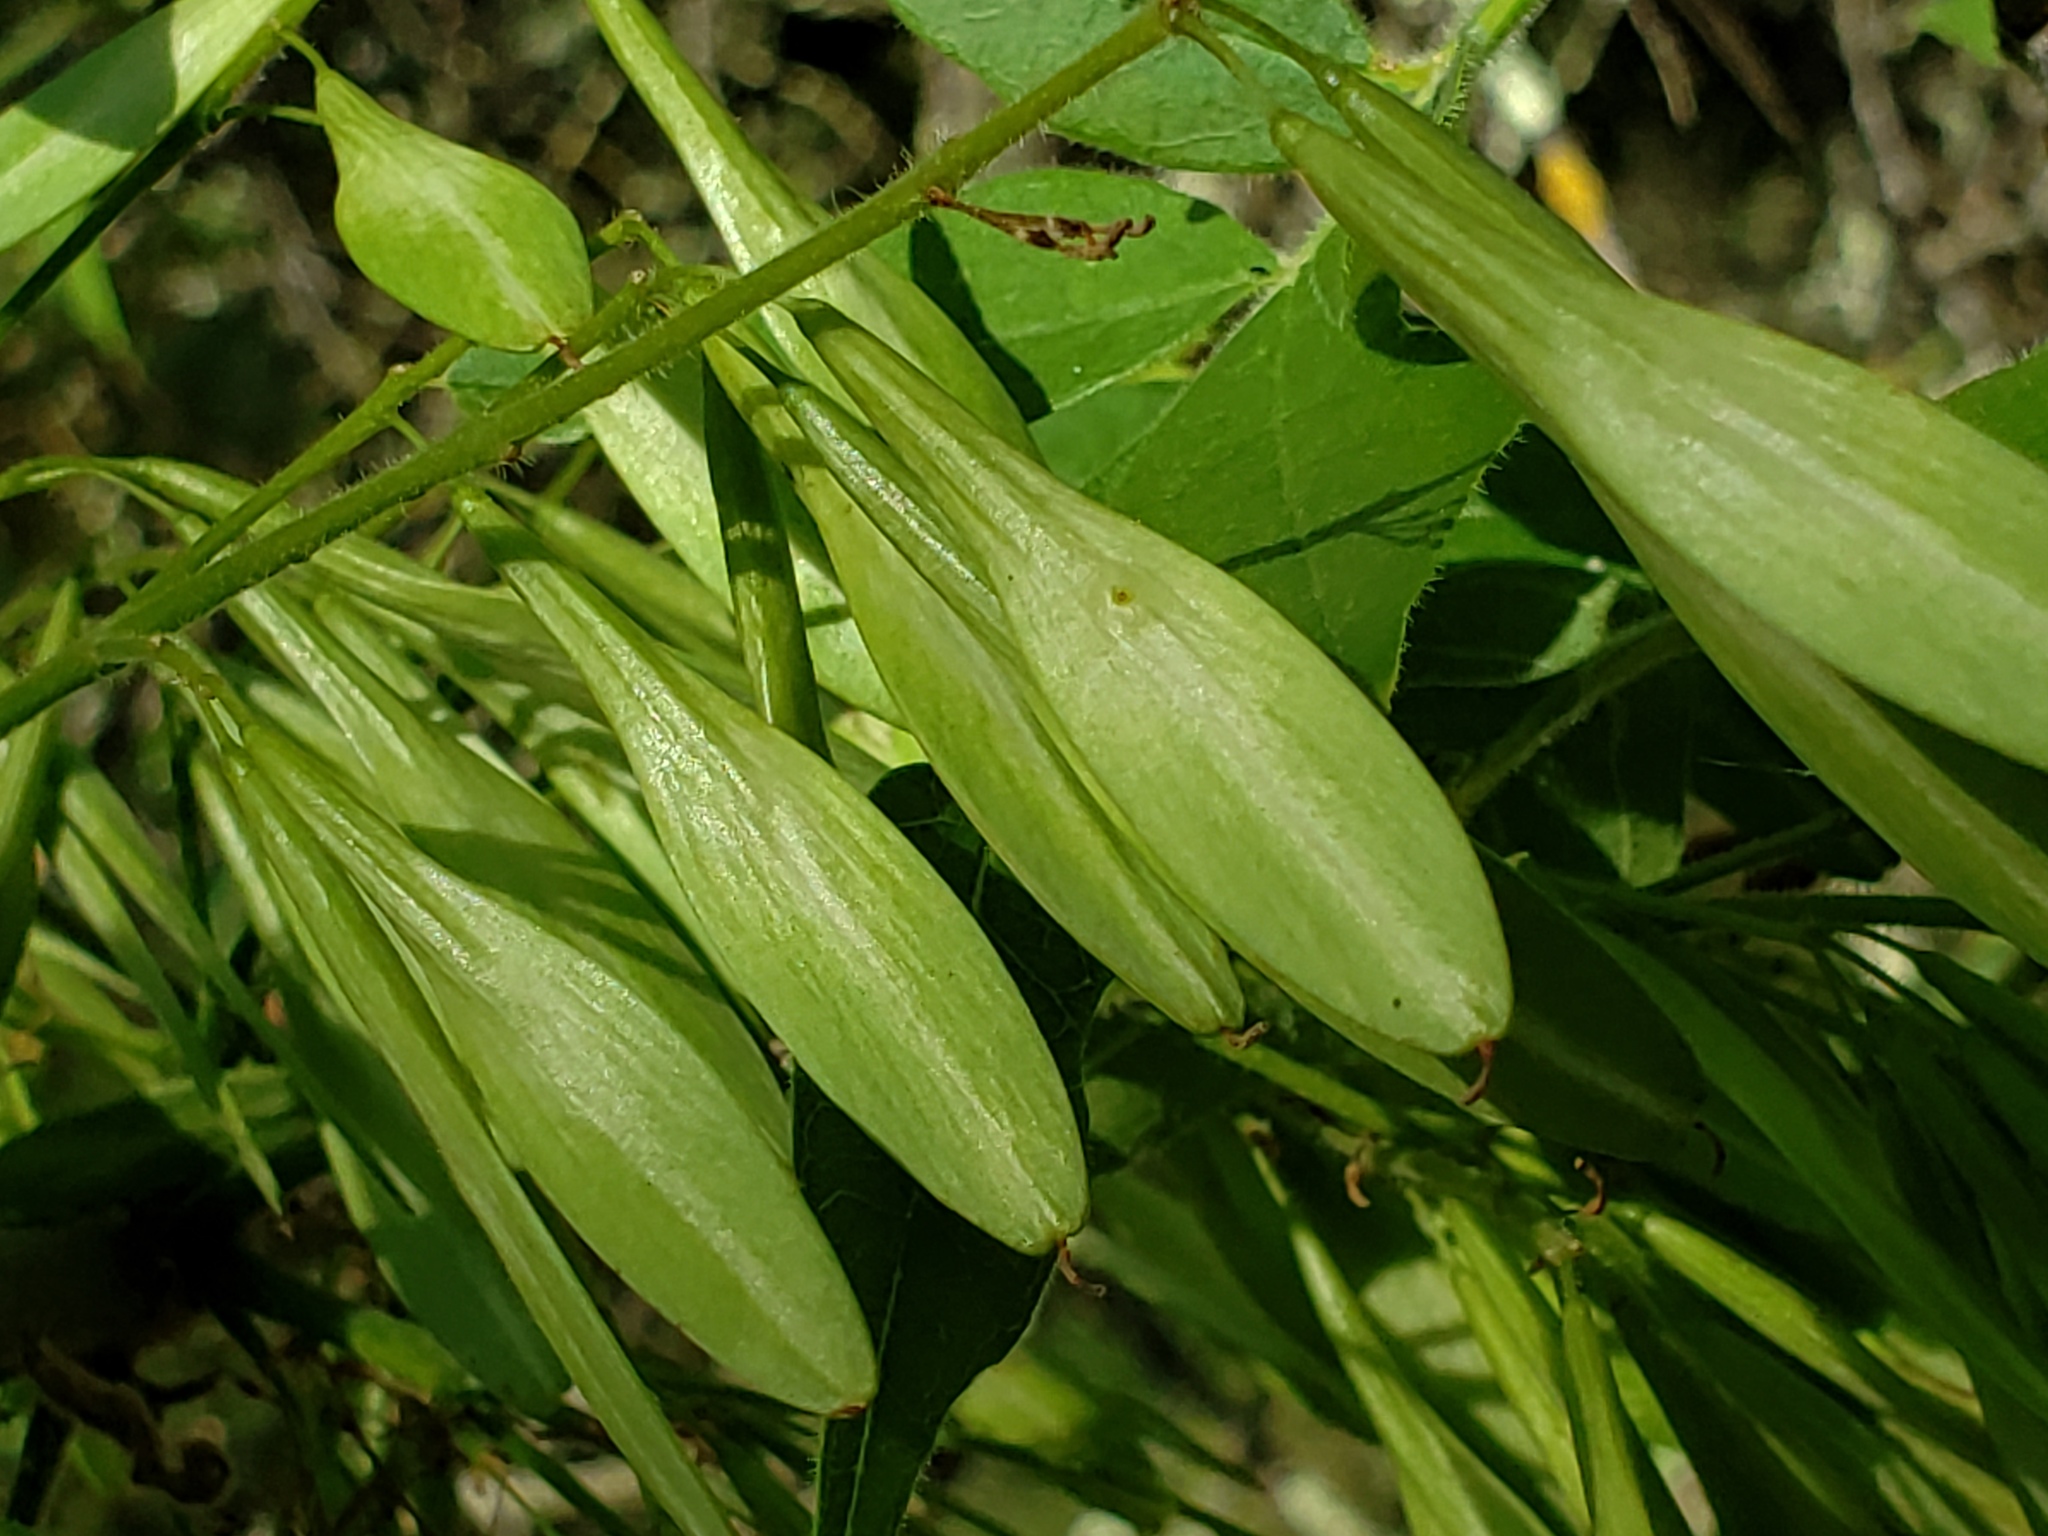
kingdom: Plantae
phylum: Tracheophyta
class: Magnoliopsida
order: Lamiales
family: Oleaceae
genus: Fraxinus
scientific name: Fraxinus latifolia
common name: Oregon ash
